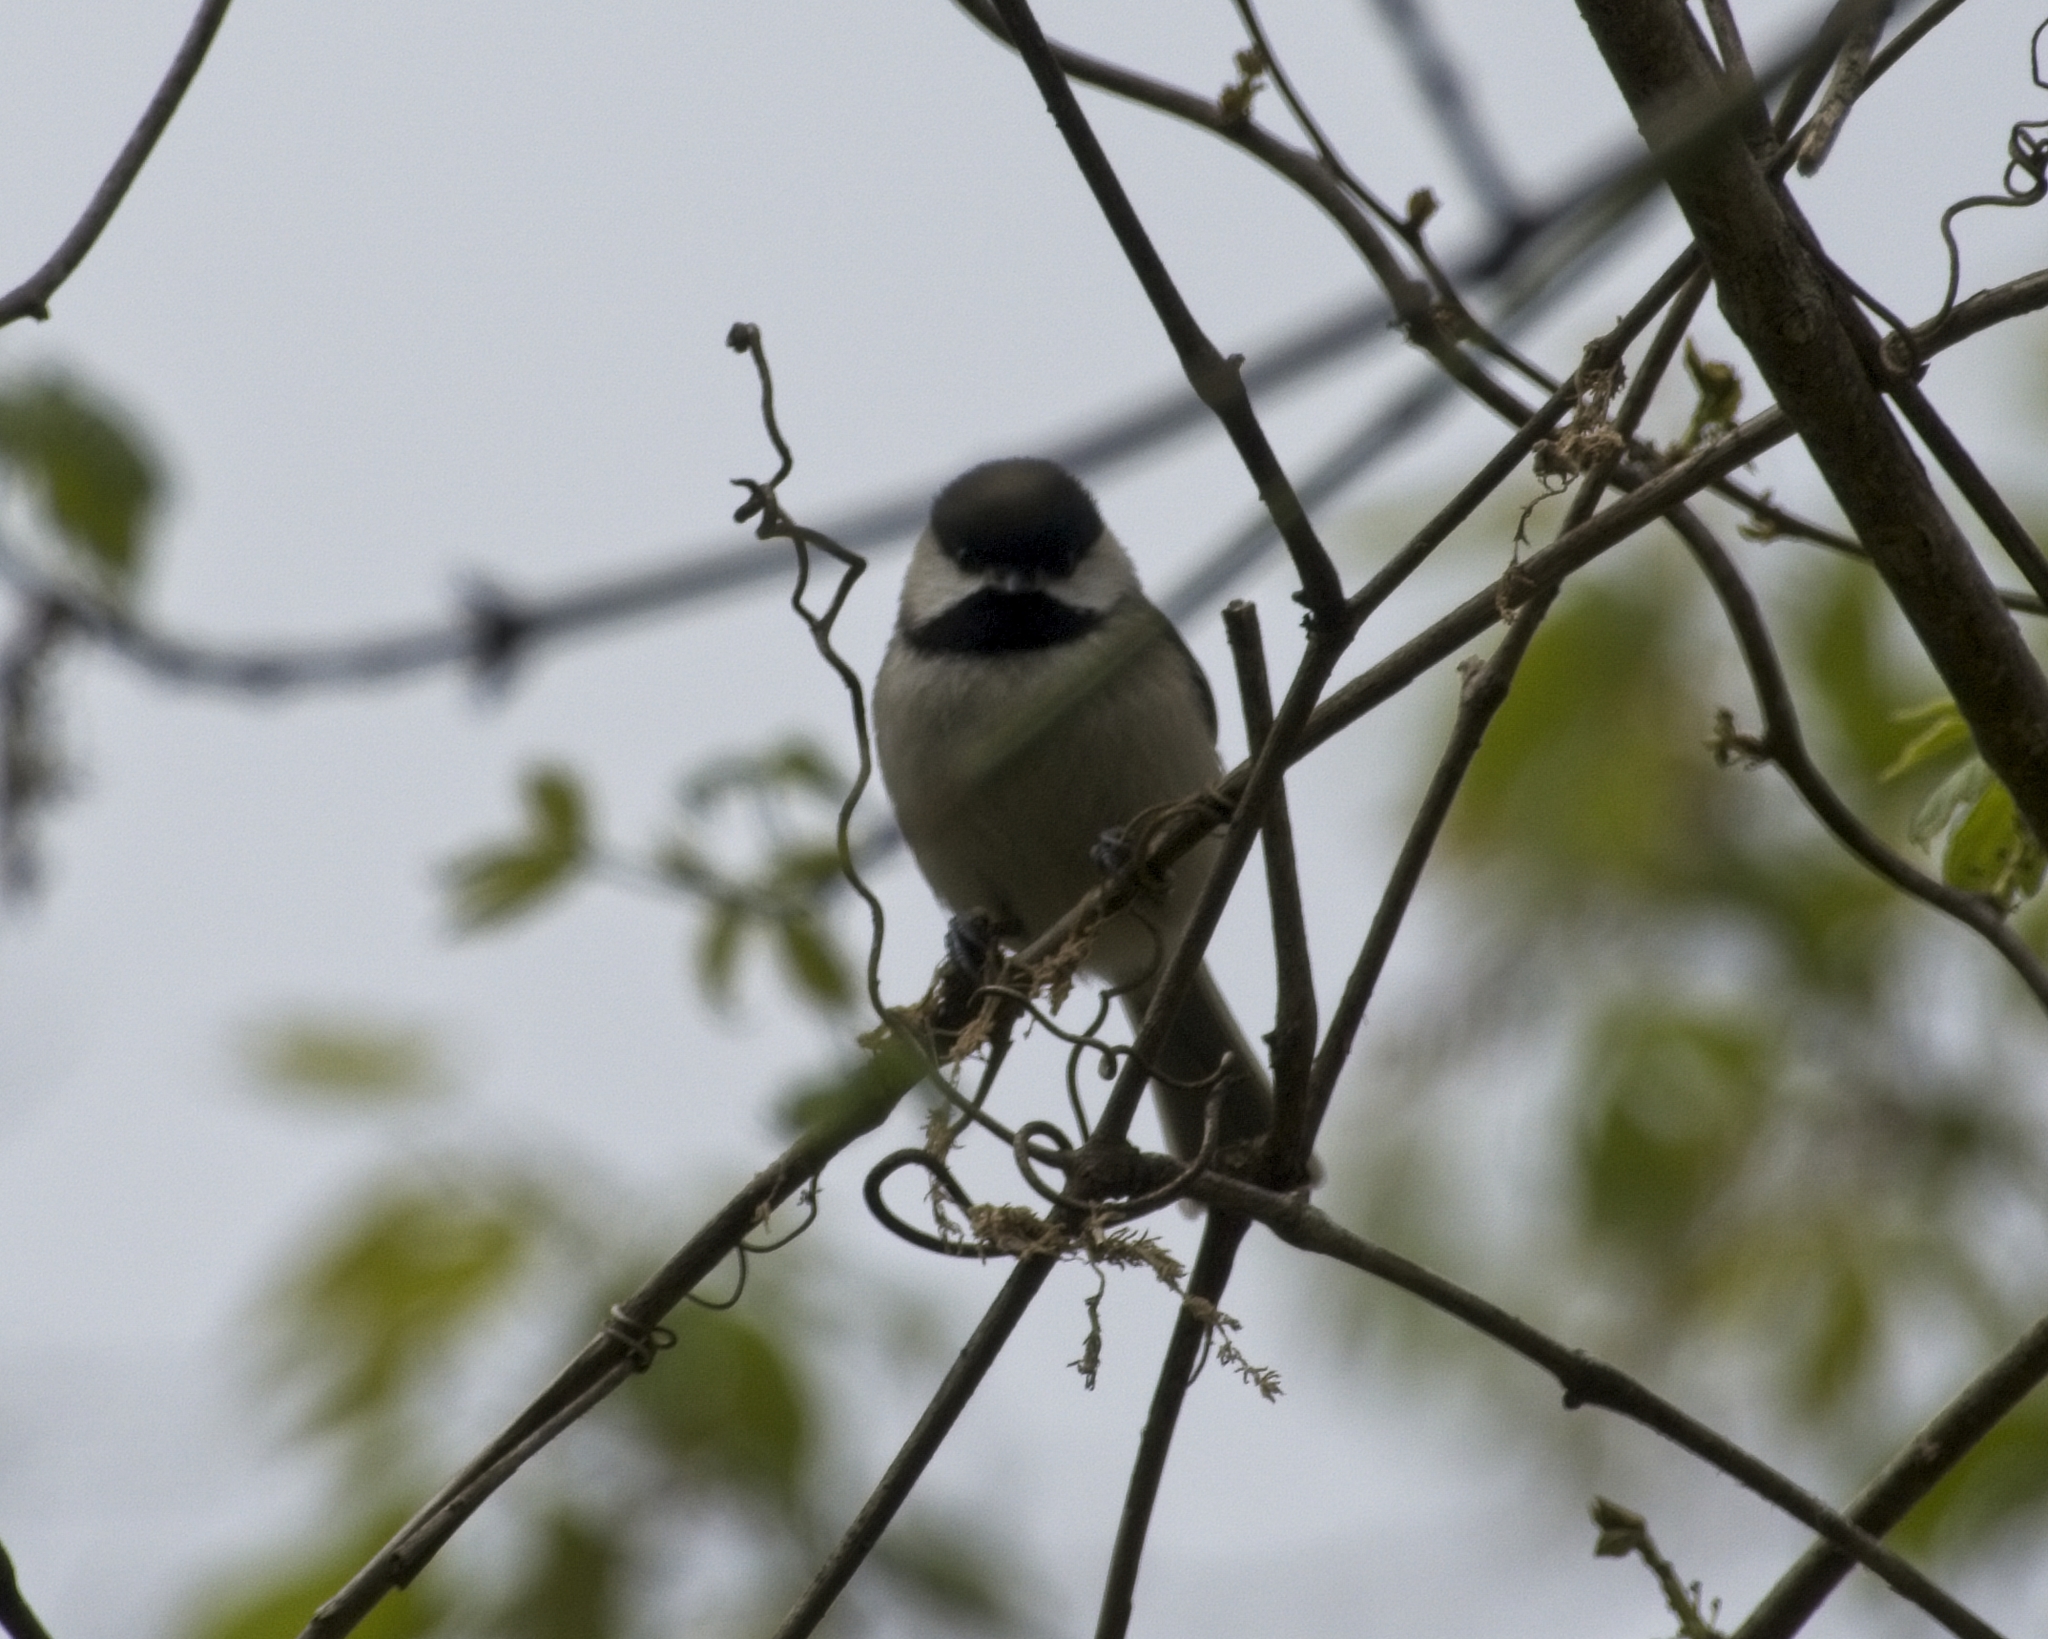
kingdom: Animalia
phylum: Chordata
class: Aves
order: Passeriformes
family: Paridae
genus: Poecile
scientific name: Poecile carolinensis
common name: Carolina chickadee
